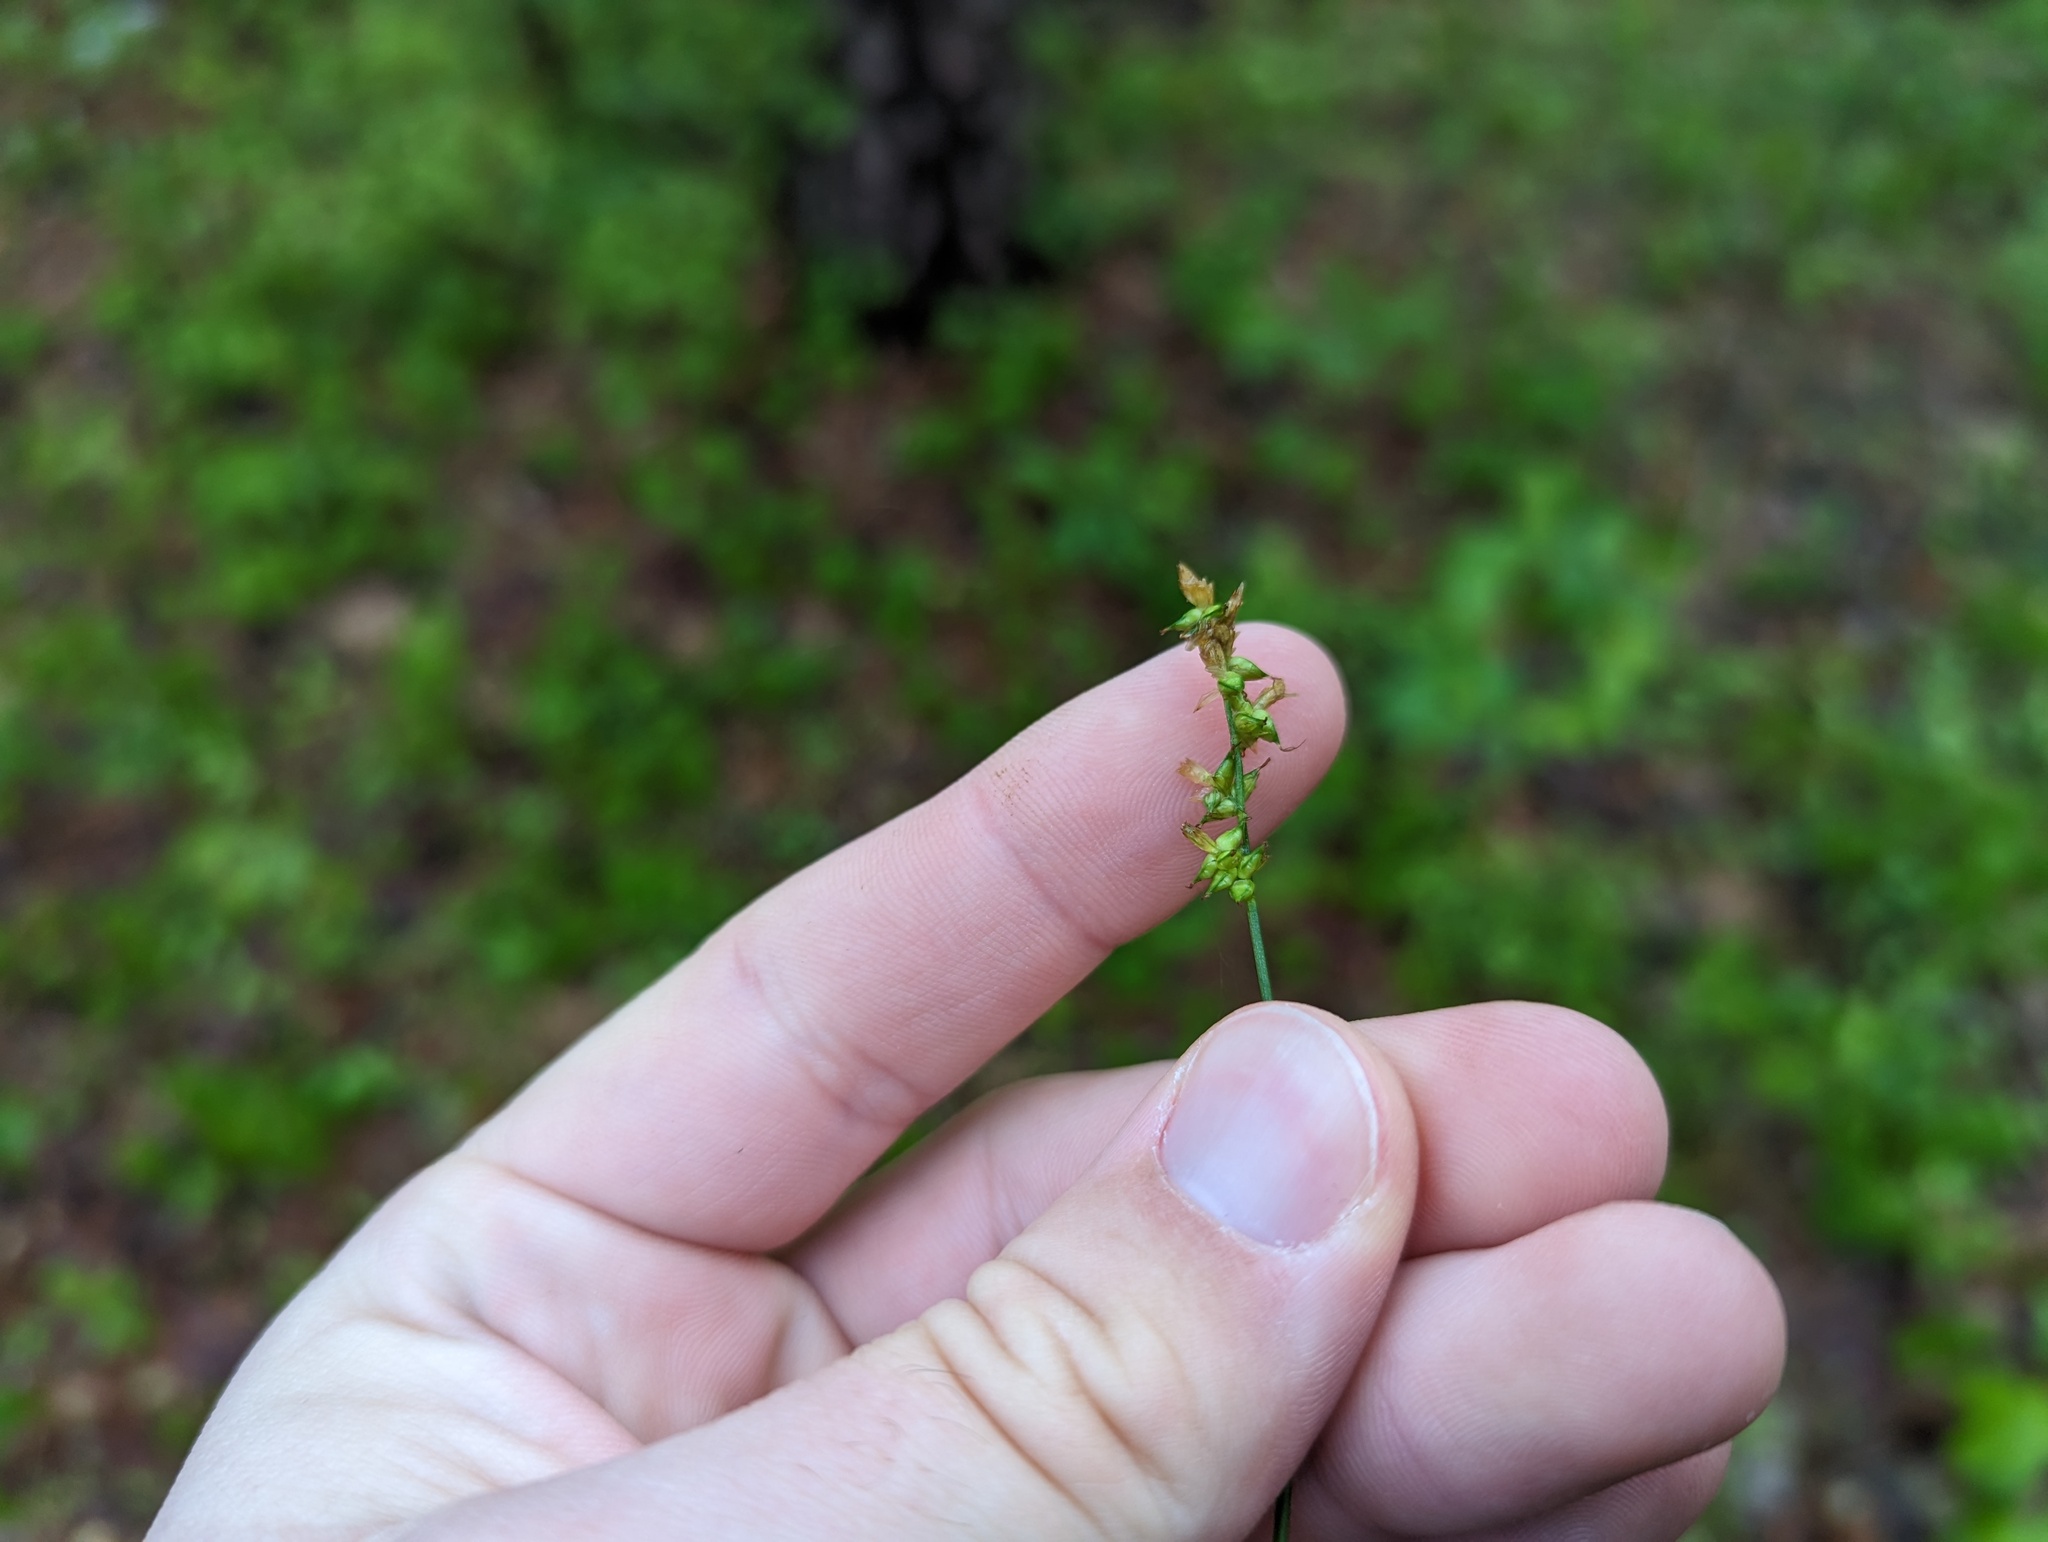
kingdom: Plantae
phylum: Tracheophyta
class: Liliopsida
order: Poales
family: Cyperaceae
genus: Carex
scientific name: Carex retroflexa
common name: Reflexed sedge
